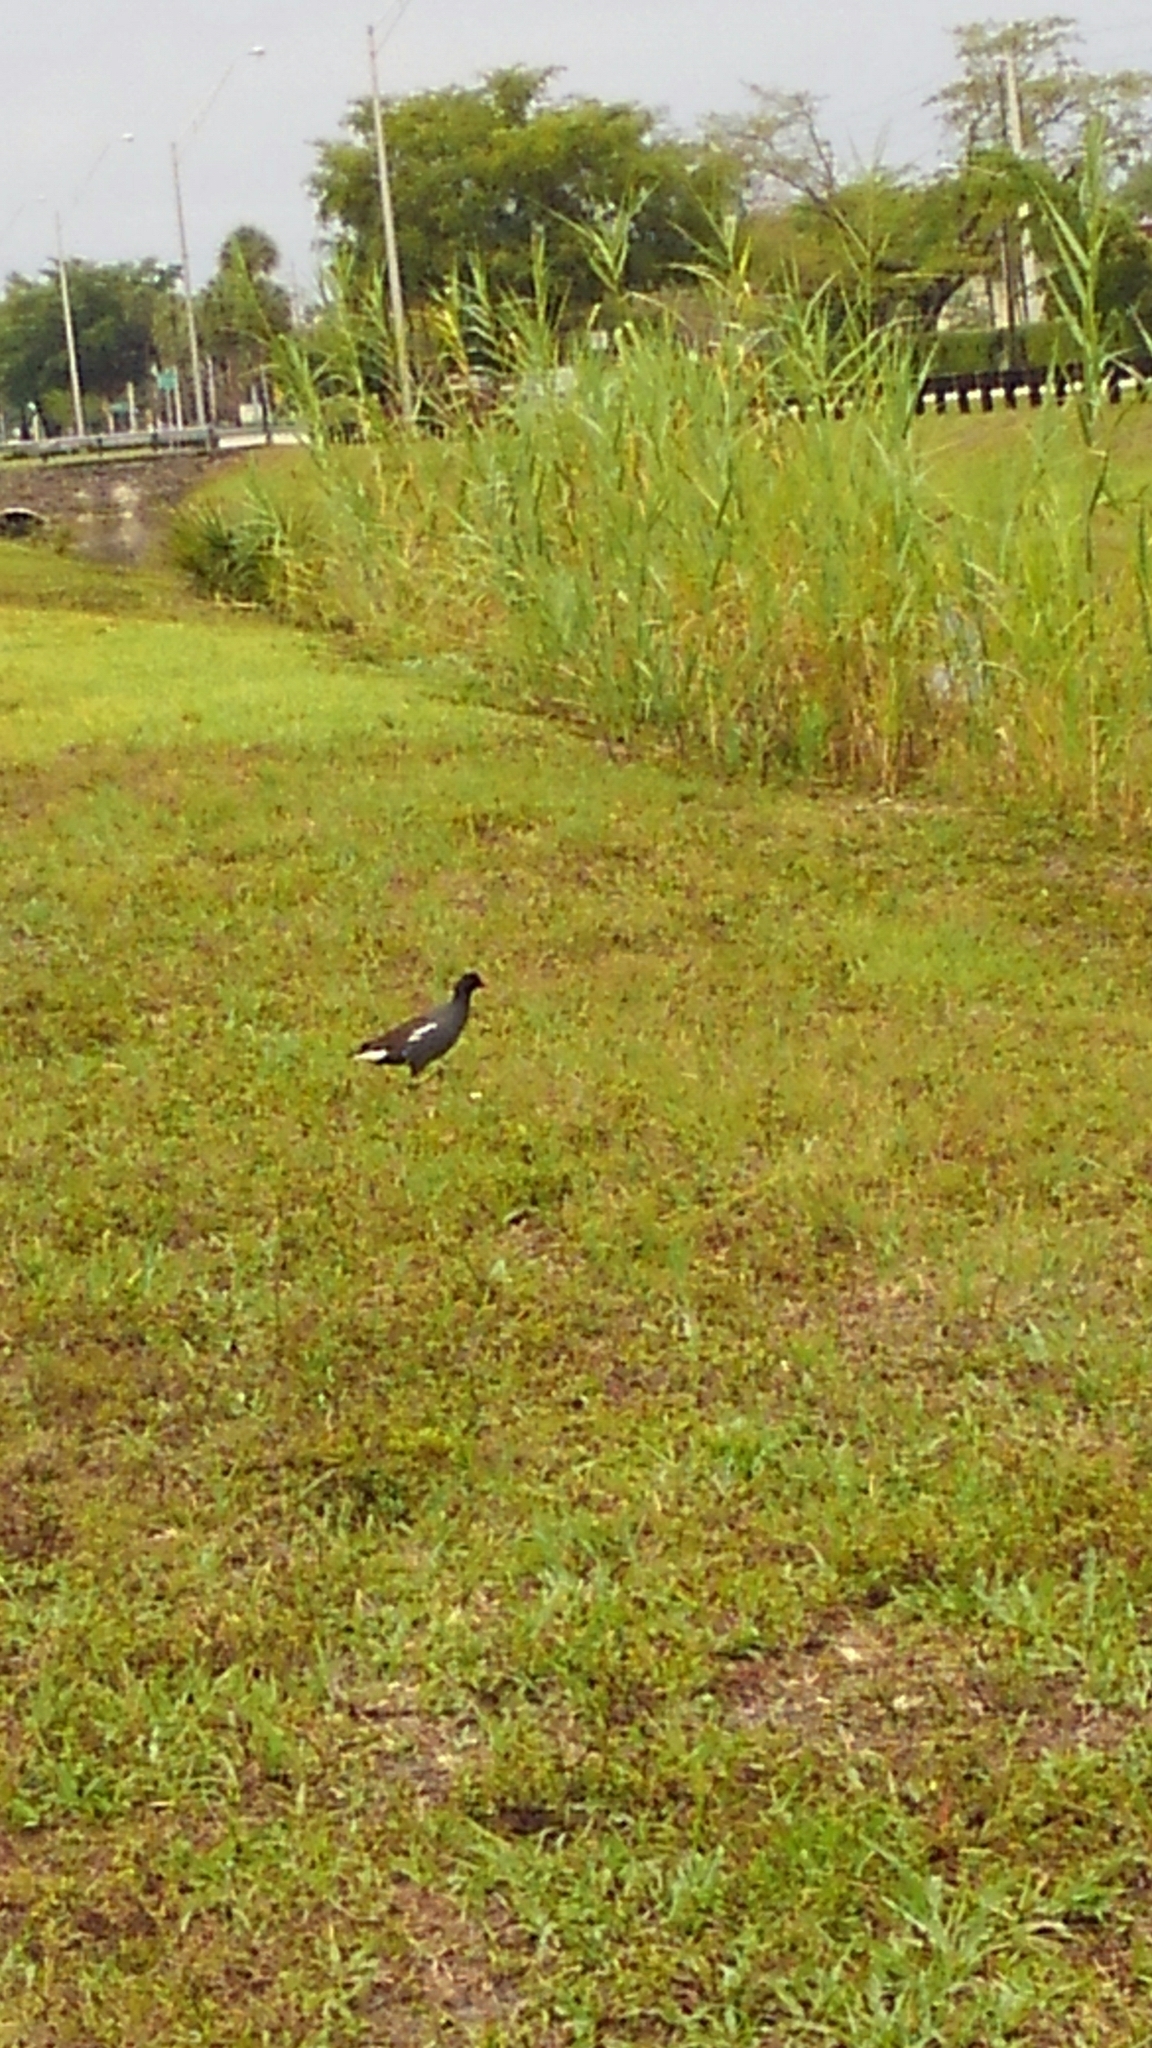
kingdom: Animalia
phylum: Chordata
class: Aves
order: Gruiformes
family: Rallidae
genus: Gallinula
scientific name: Gallinula chloropus
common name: Common moorhen
